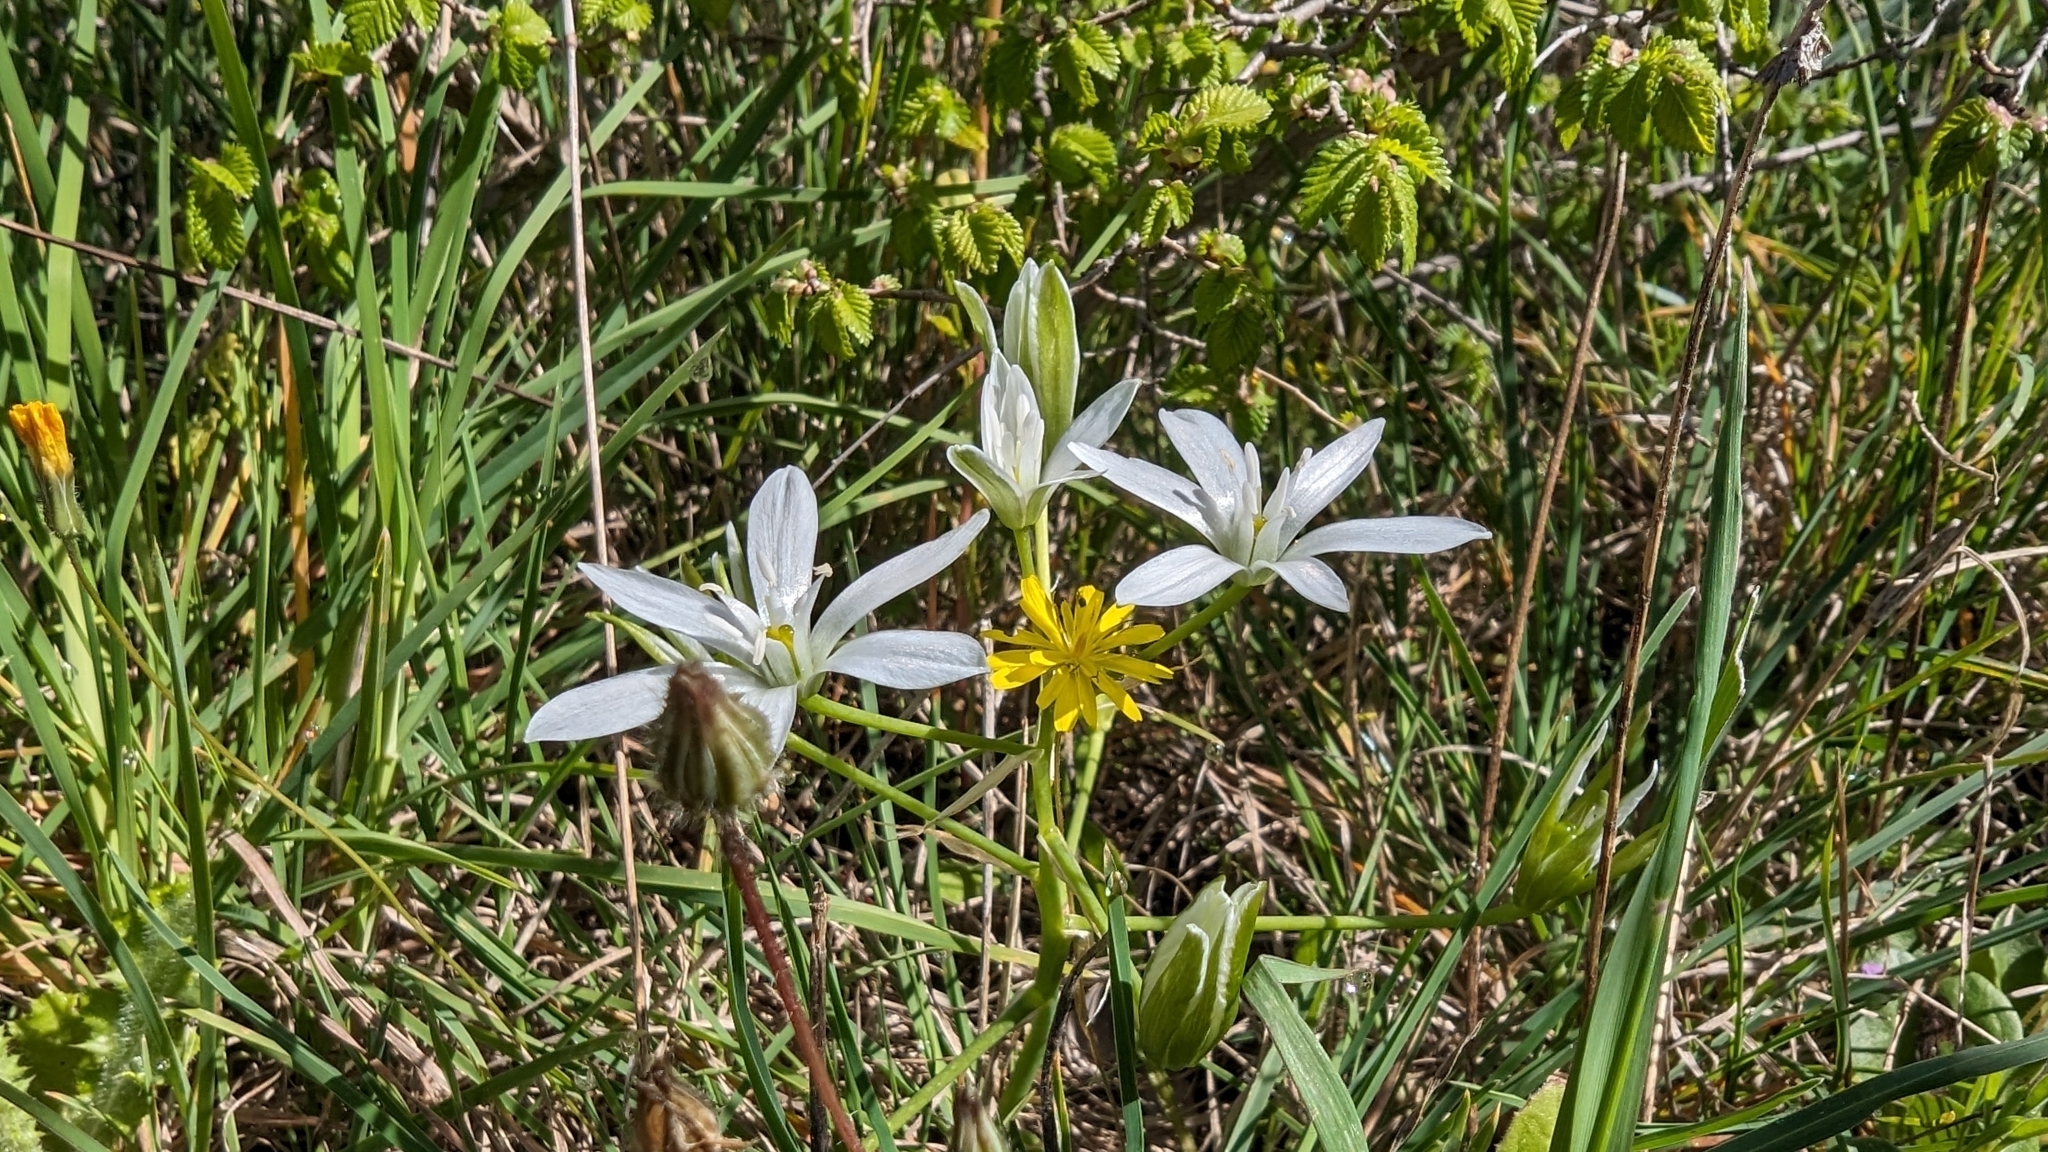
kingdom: Plantae
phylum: Tracheophyta
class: Liliopsida
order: Asparagales
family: Asparagaceae
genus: Ornithogalum
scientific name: Ornithogalum divergens
